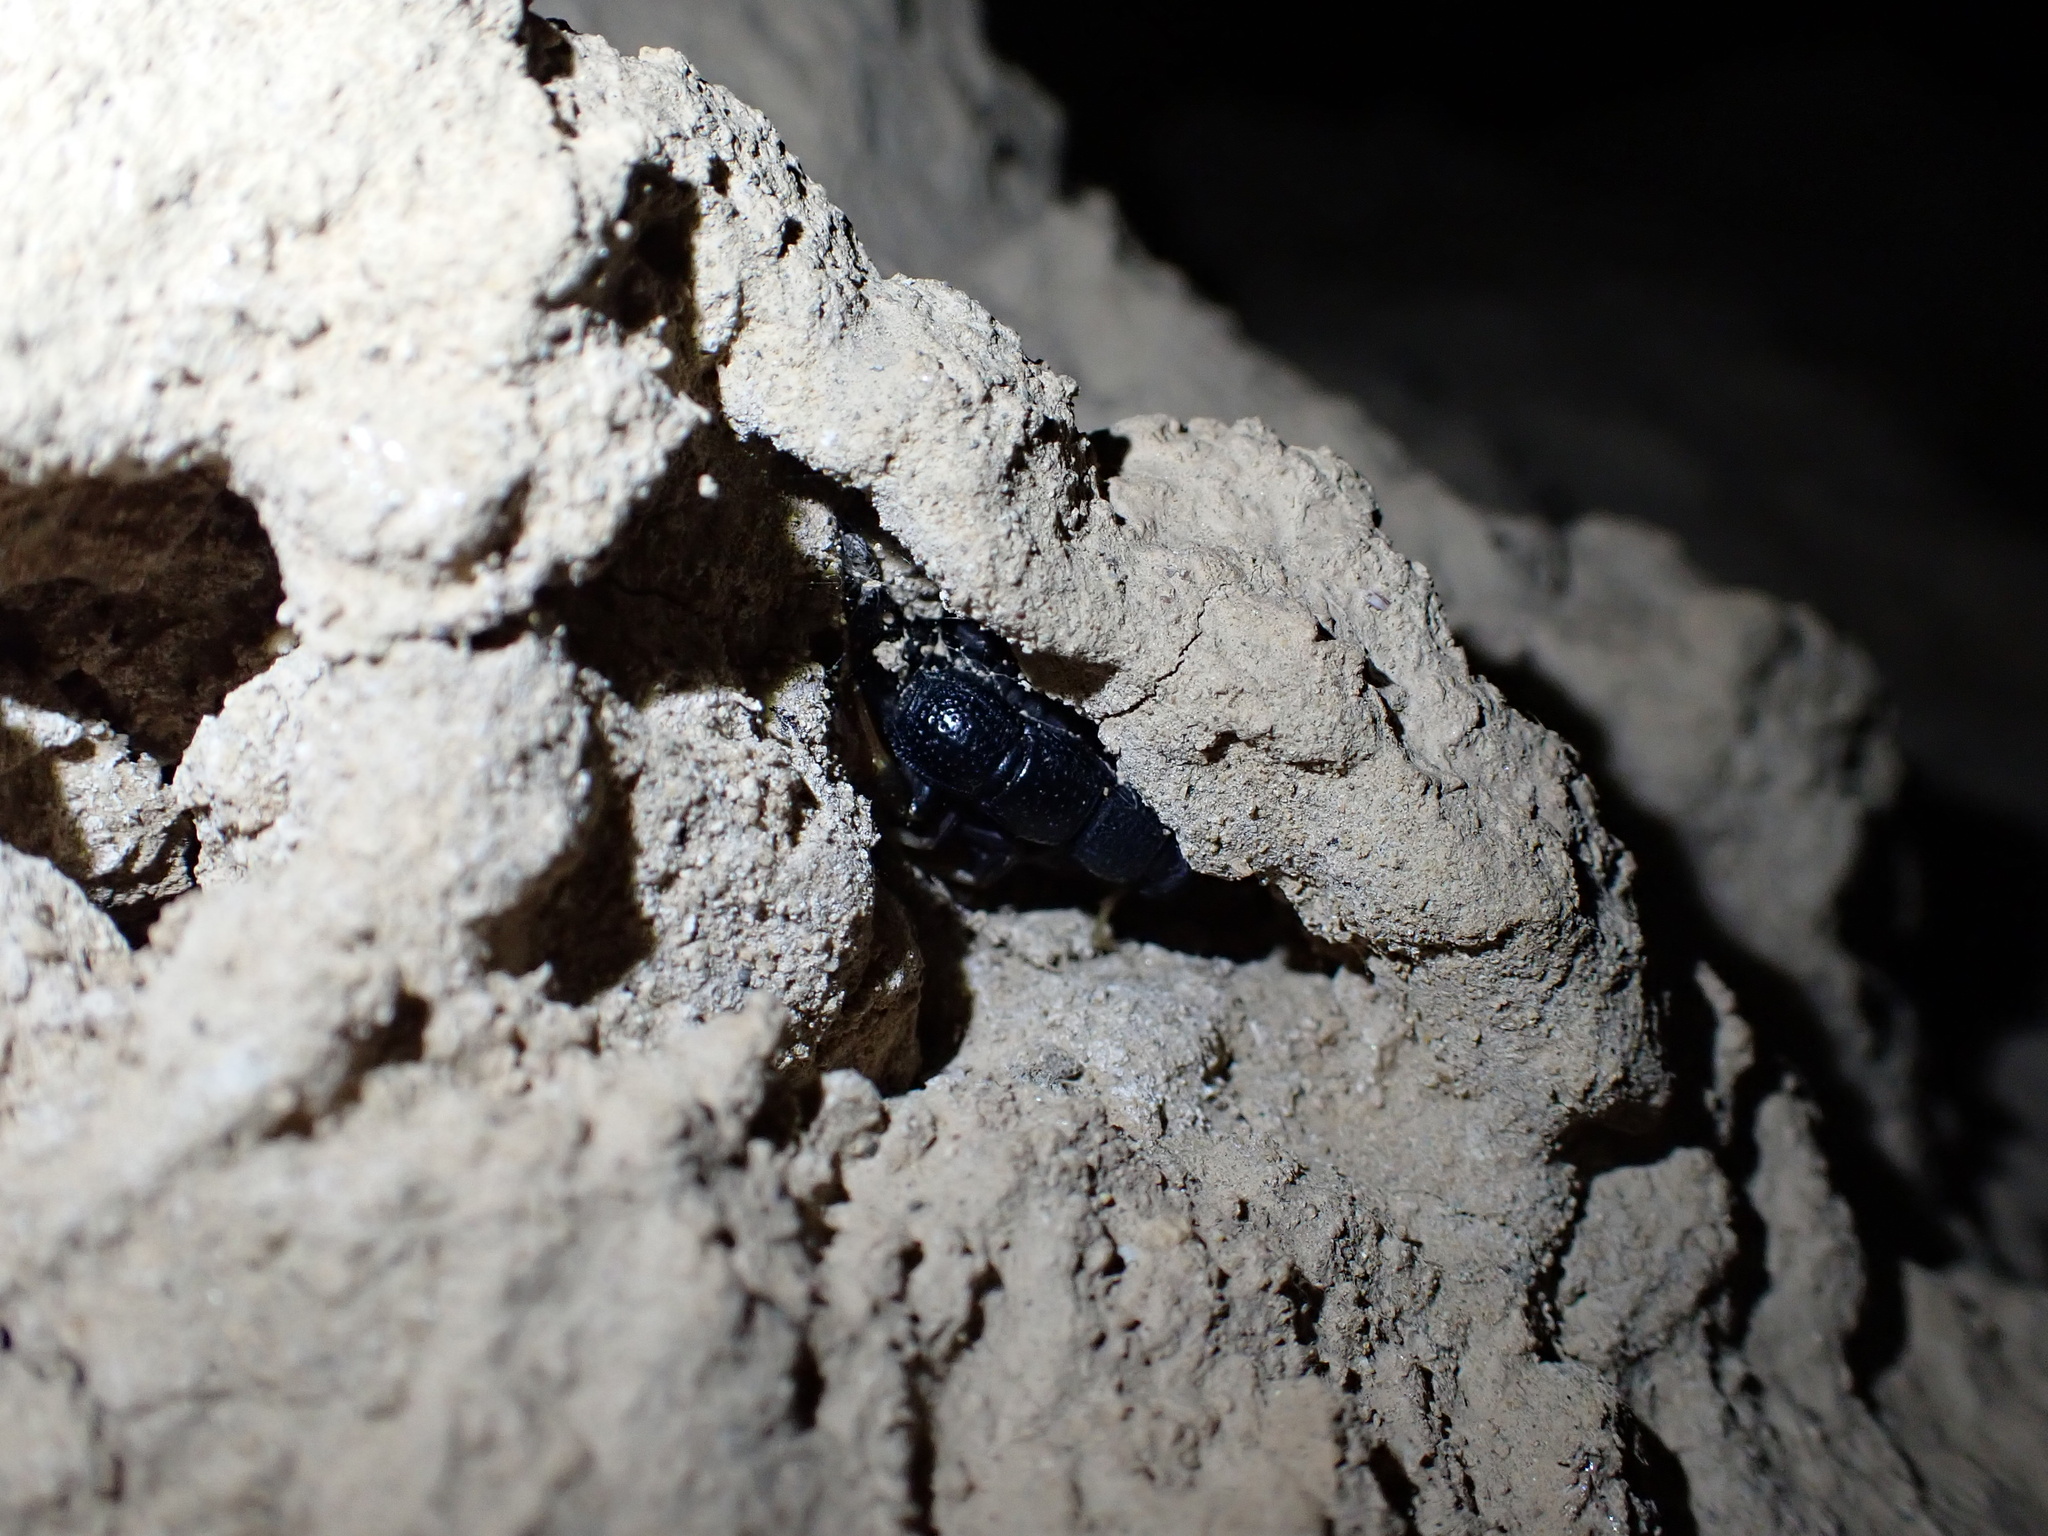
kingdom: Animalia
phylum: Arthropoda
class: Arachnida
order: Scorpiones
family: Buthidae
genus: Orthochirus
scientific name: Orthochirus mesopotamicus
